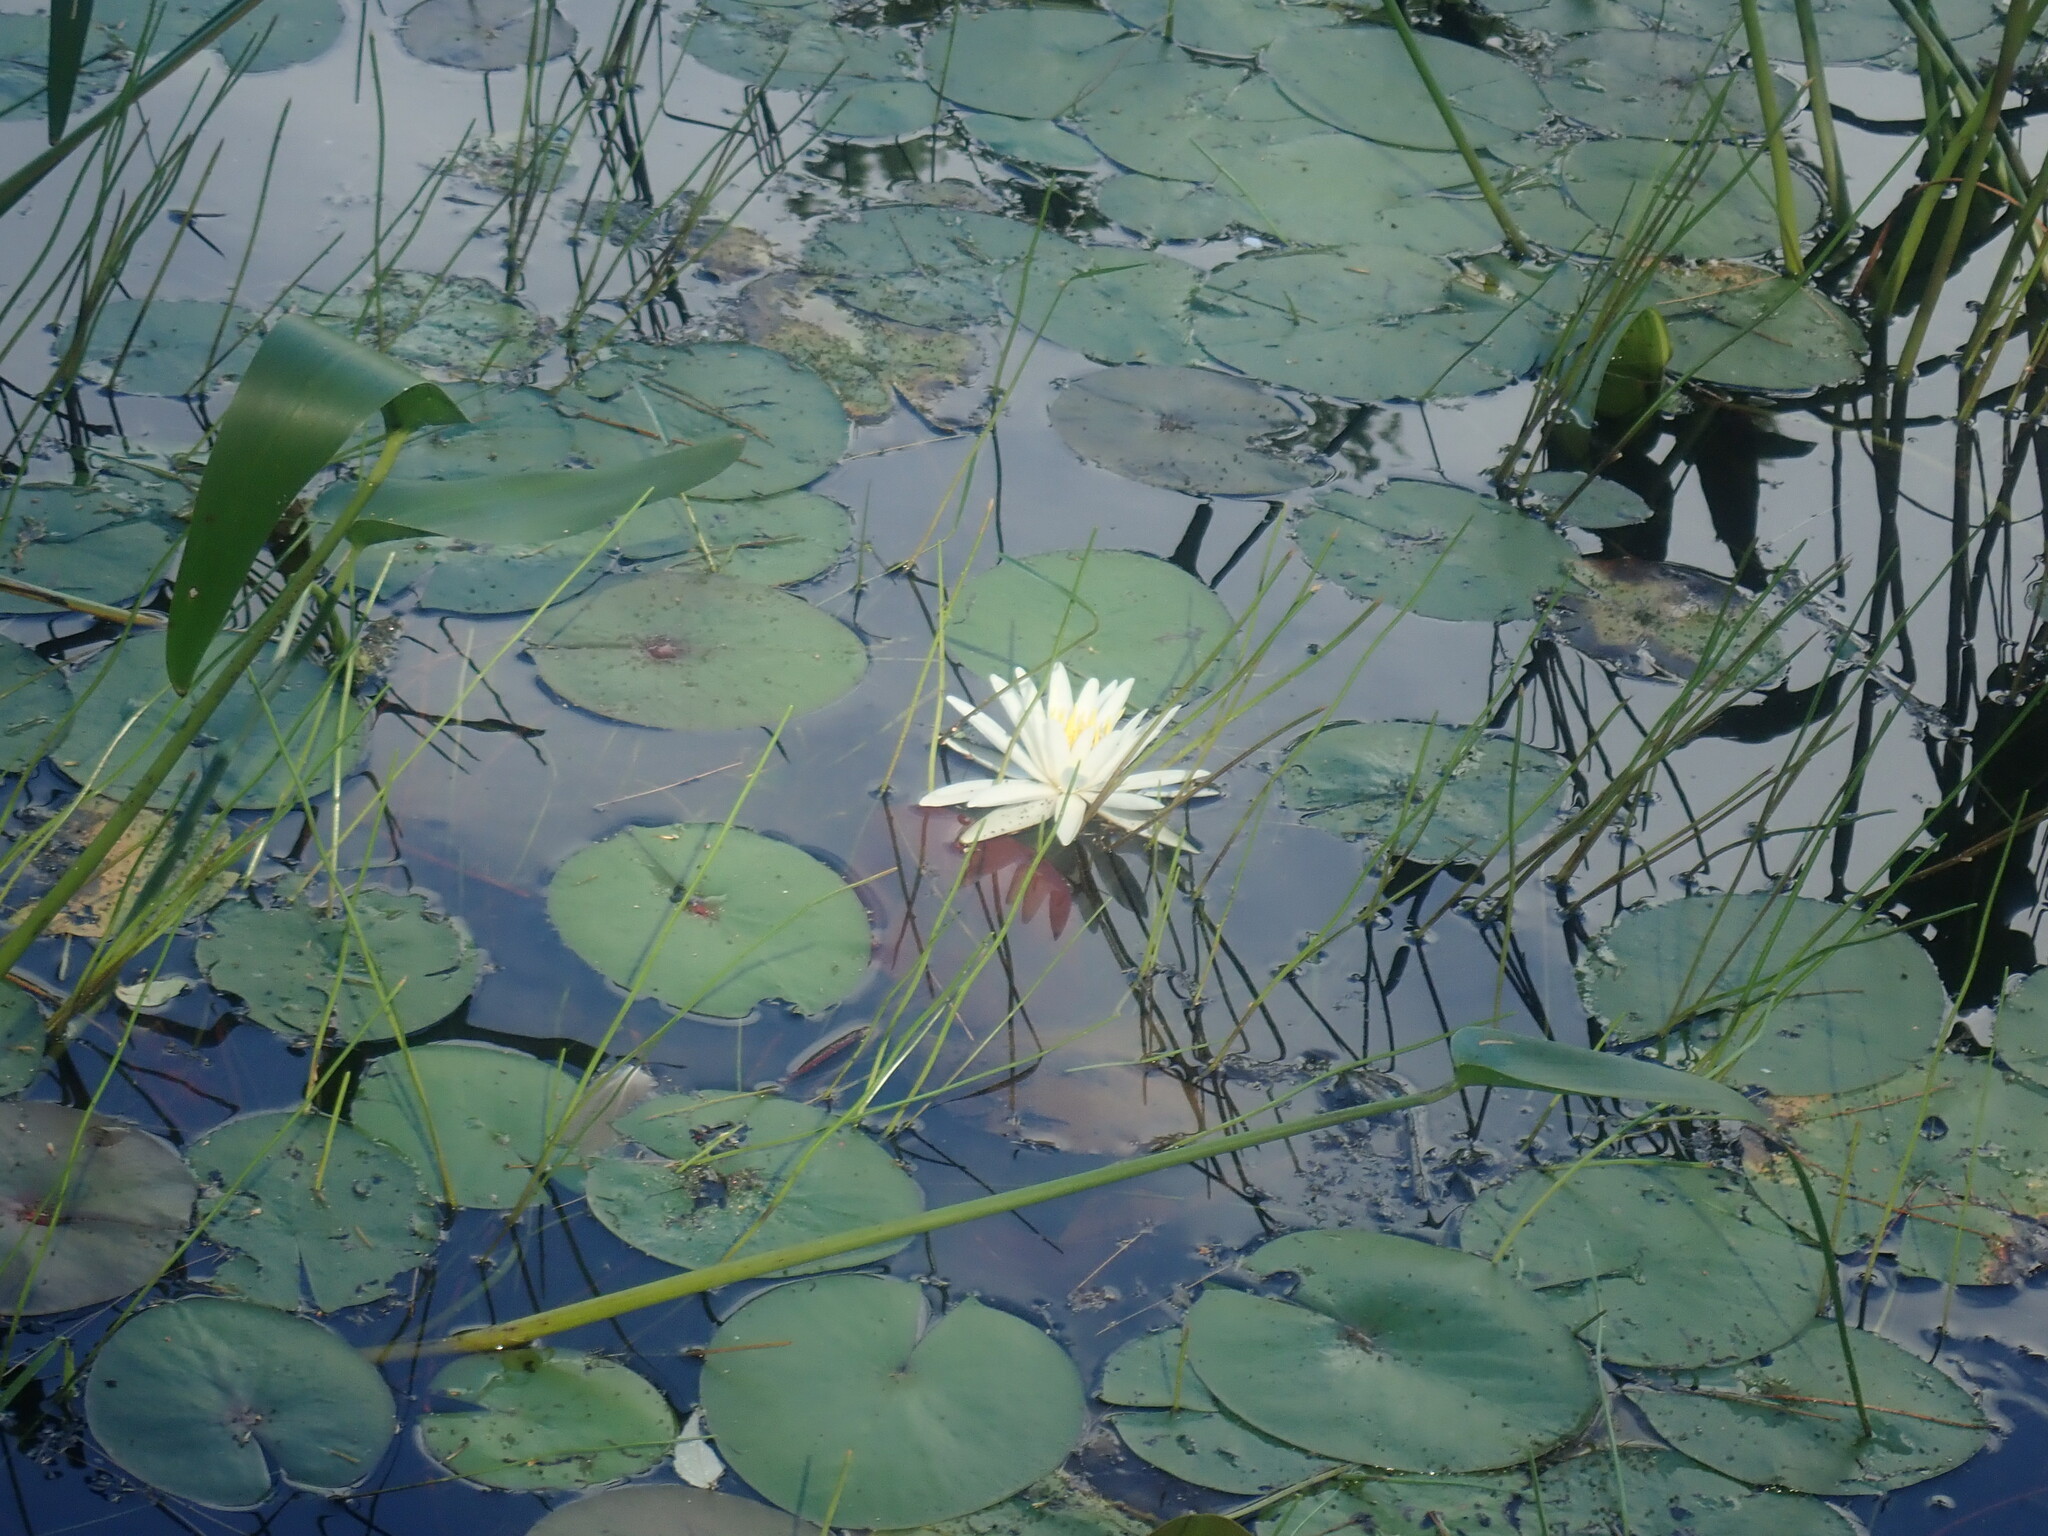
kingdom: Plantae
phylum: Tracheophyta
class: Magnoliopsida
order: Nymphaeales
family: Nymphaeaceae
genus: Nymphaea
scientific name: Nymphaea odorata
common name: Fragrant water-lily
